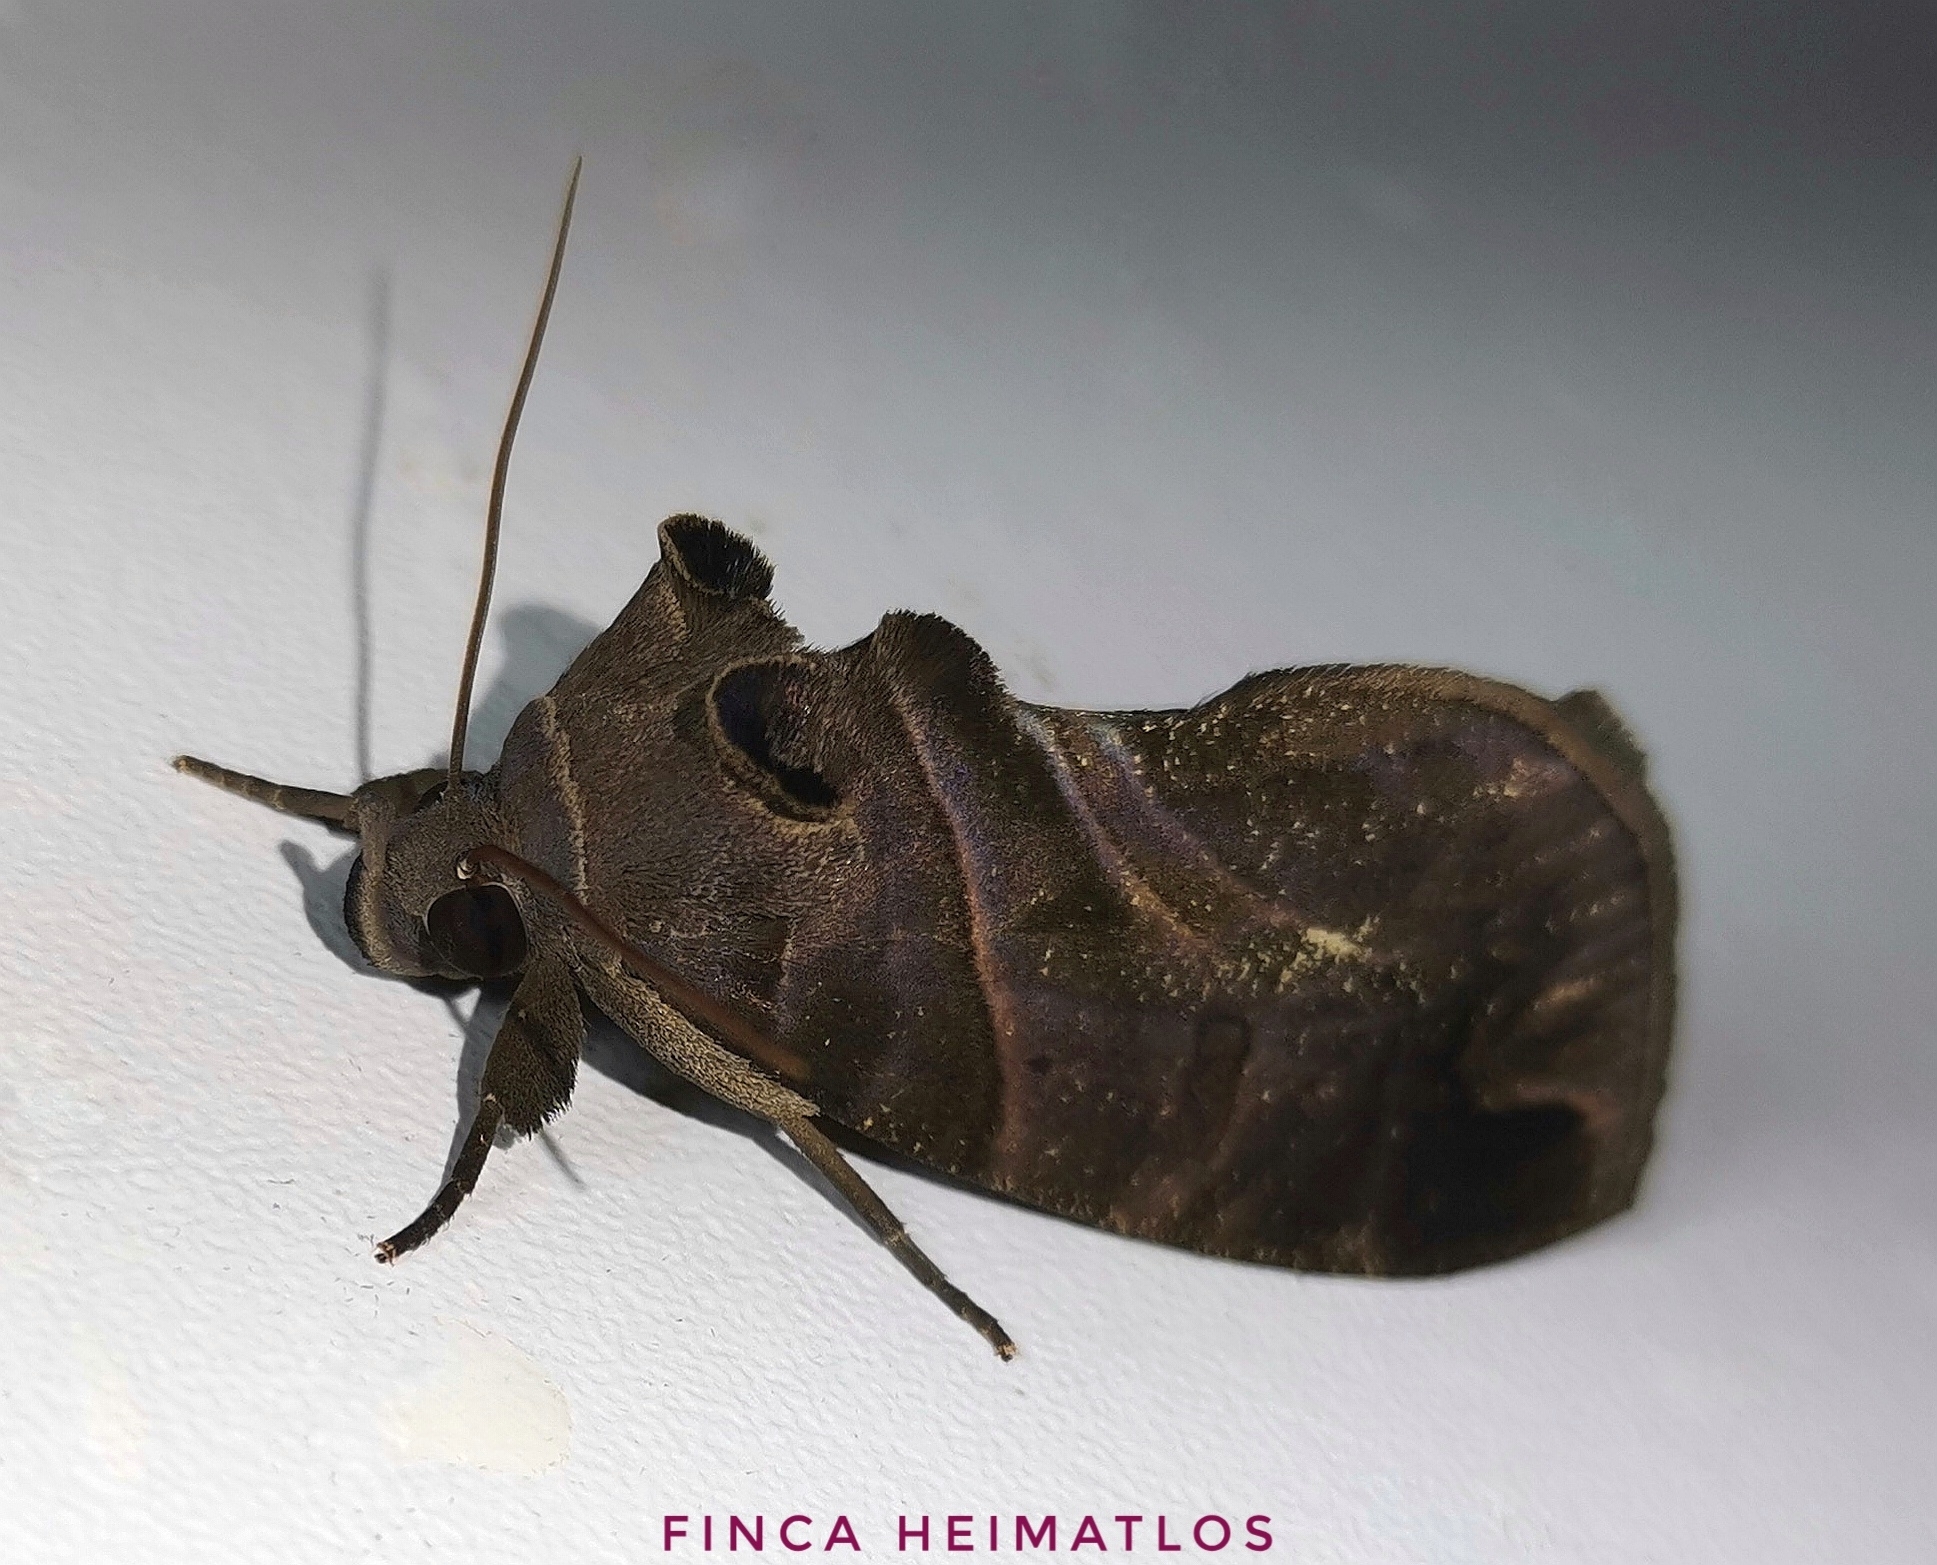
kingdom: Animalia
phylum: Arthropoda
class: Insecta
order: Lepidoptera
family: Erebidae
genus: Eudocima
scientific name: Eudocima memorans
